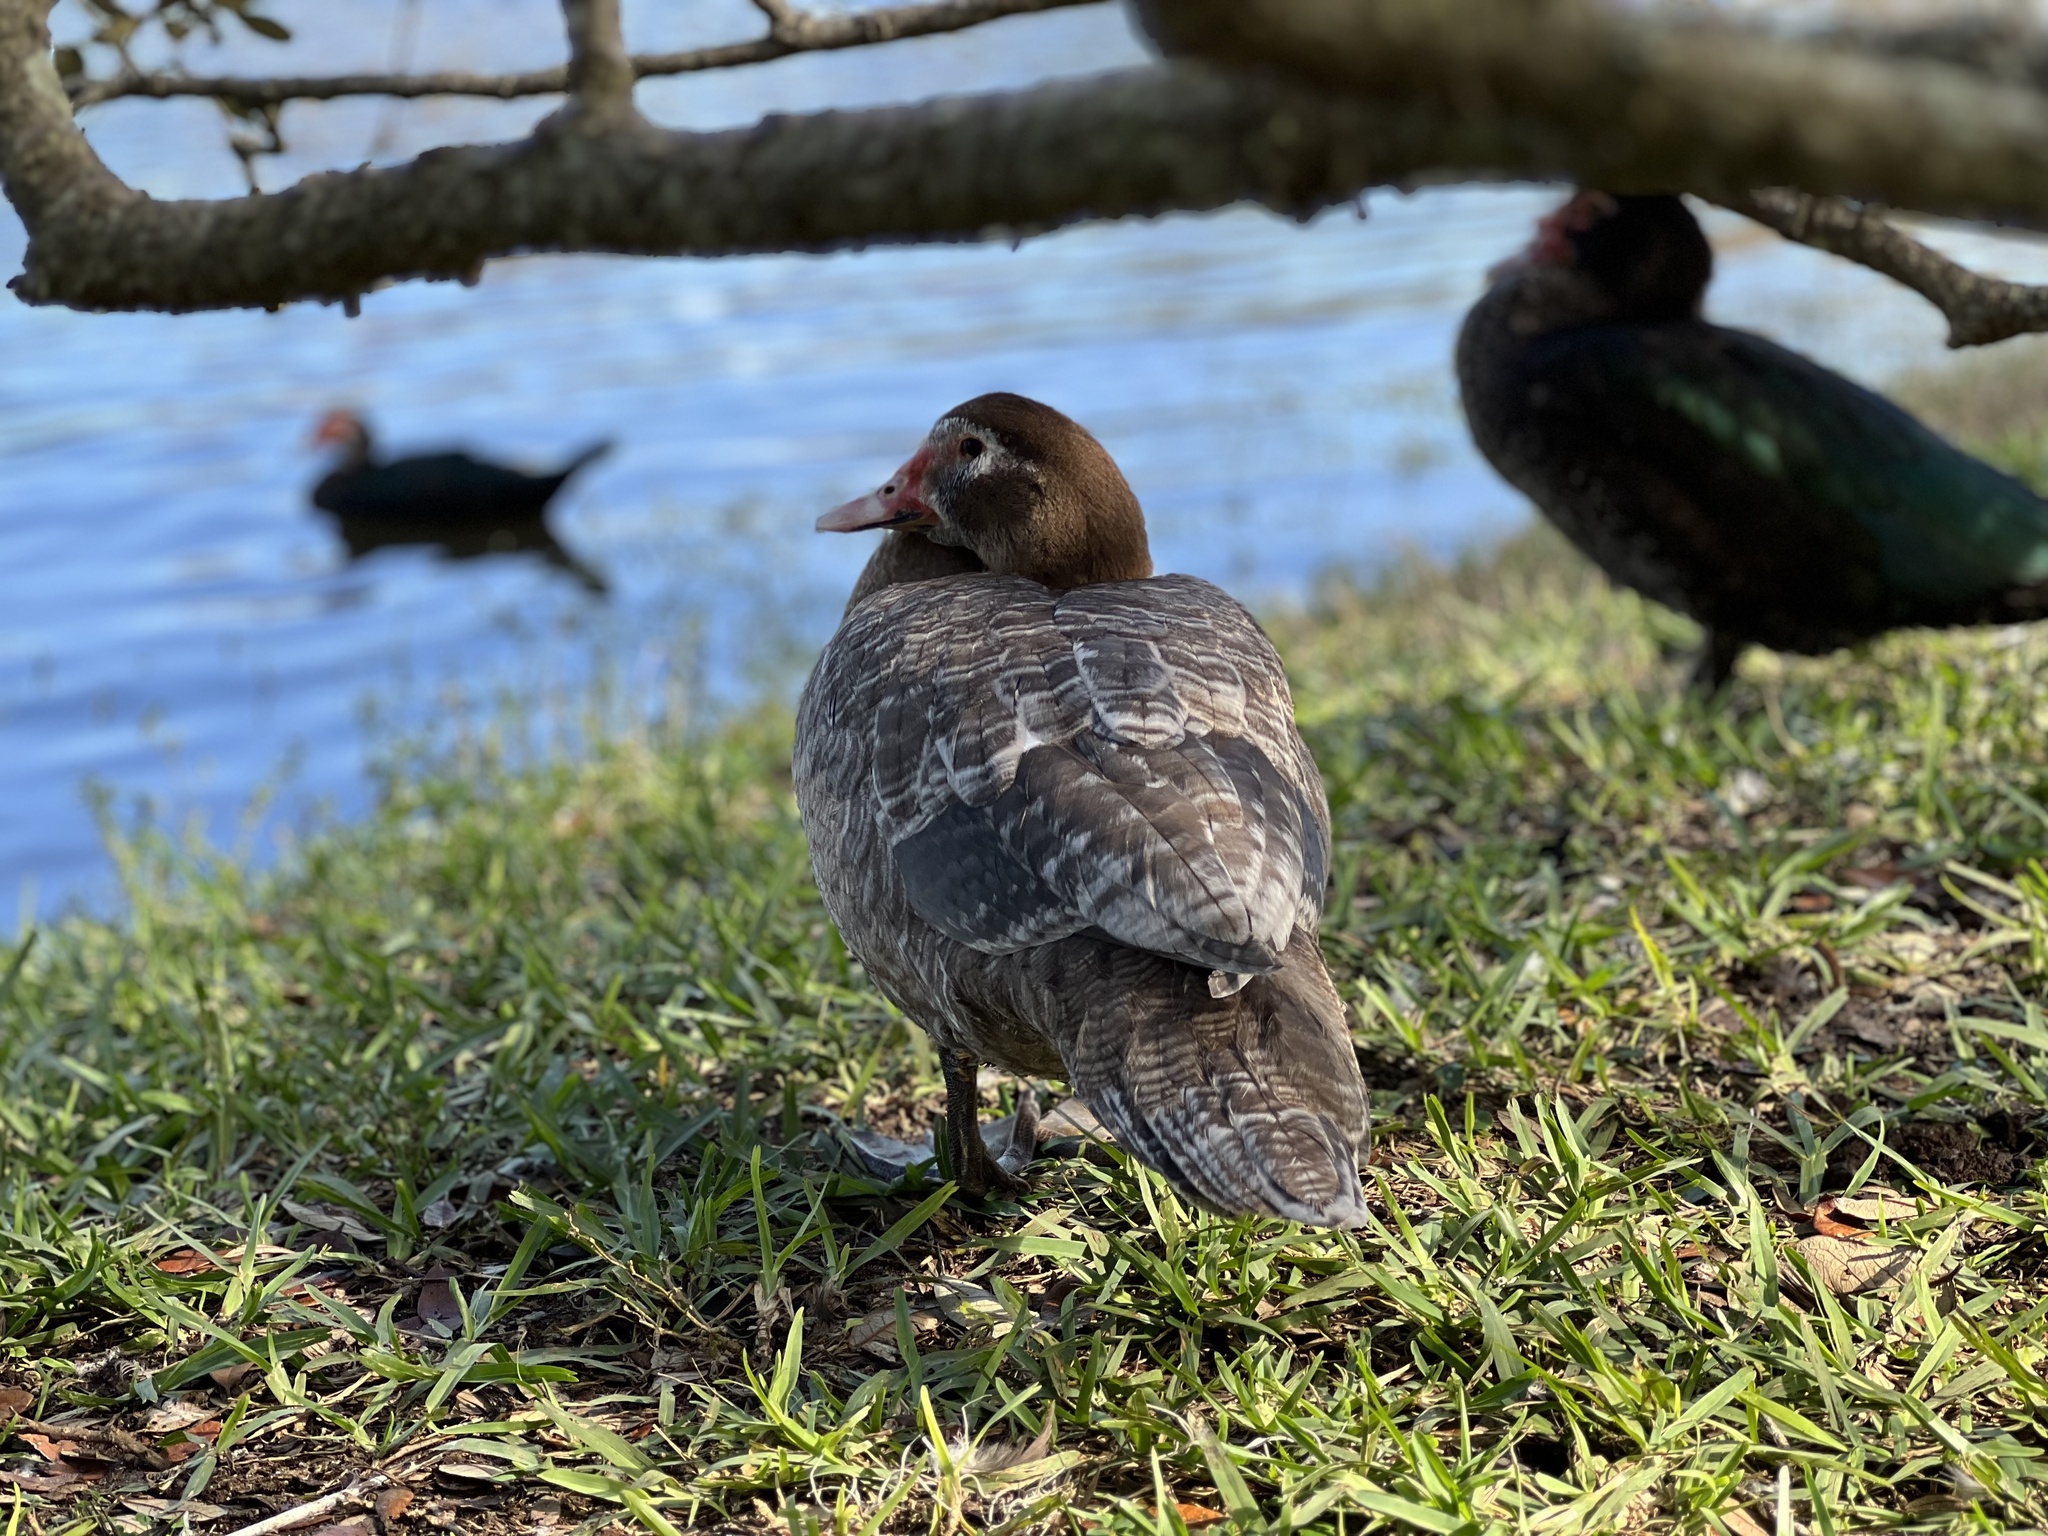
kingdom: Animalia
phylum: Chordata
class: Aves
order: Anseriformes
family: Anatidae
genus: Cairina
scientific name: Cairina moschata
